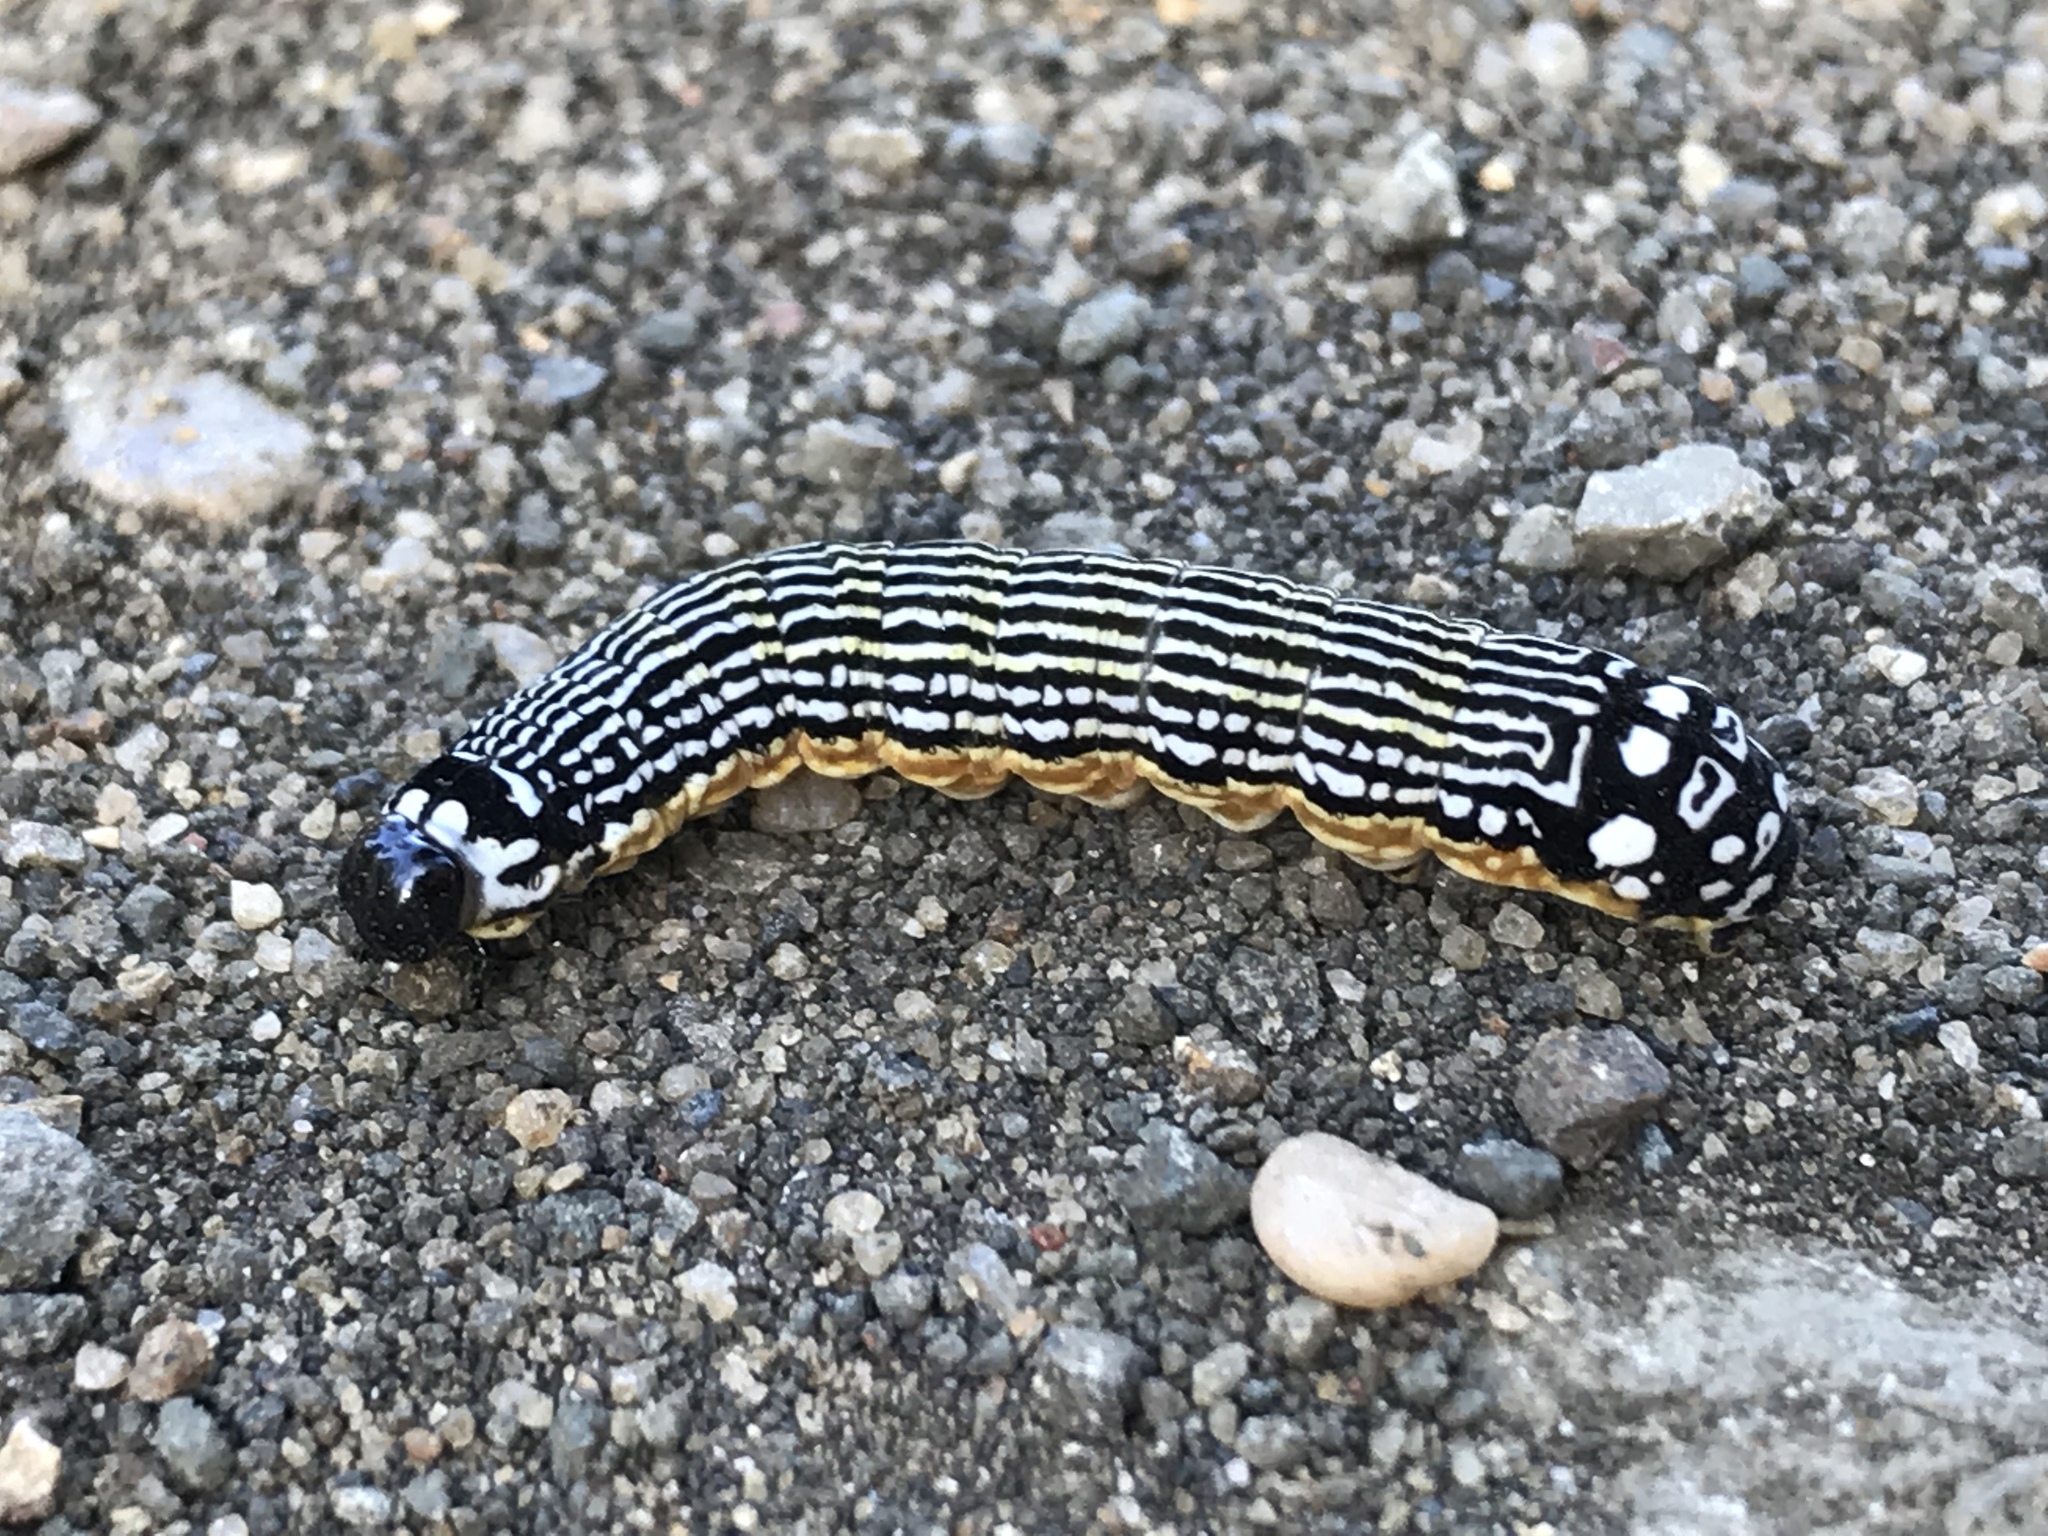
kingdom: Animalia
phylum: Arthropoda
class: Insecta
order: Lepidoptera
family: Noctuidae
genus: Phosphila
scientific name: Phosphila turbulenta
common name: Turbulent phosphila moth
